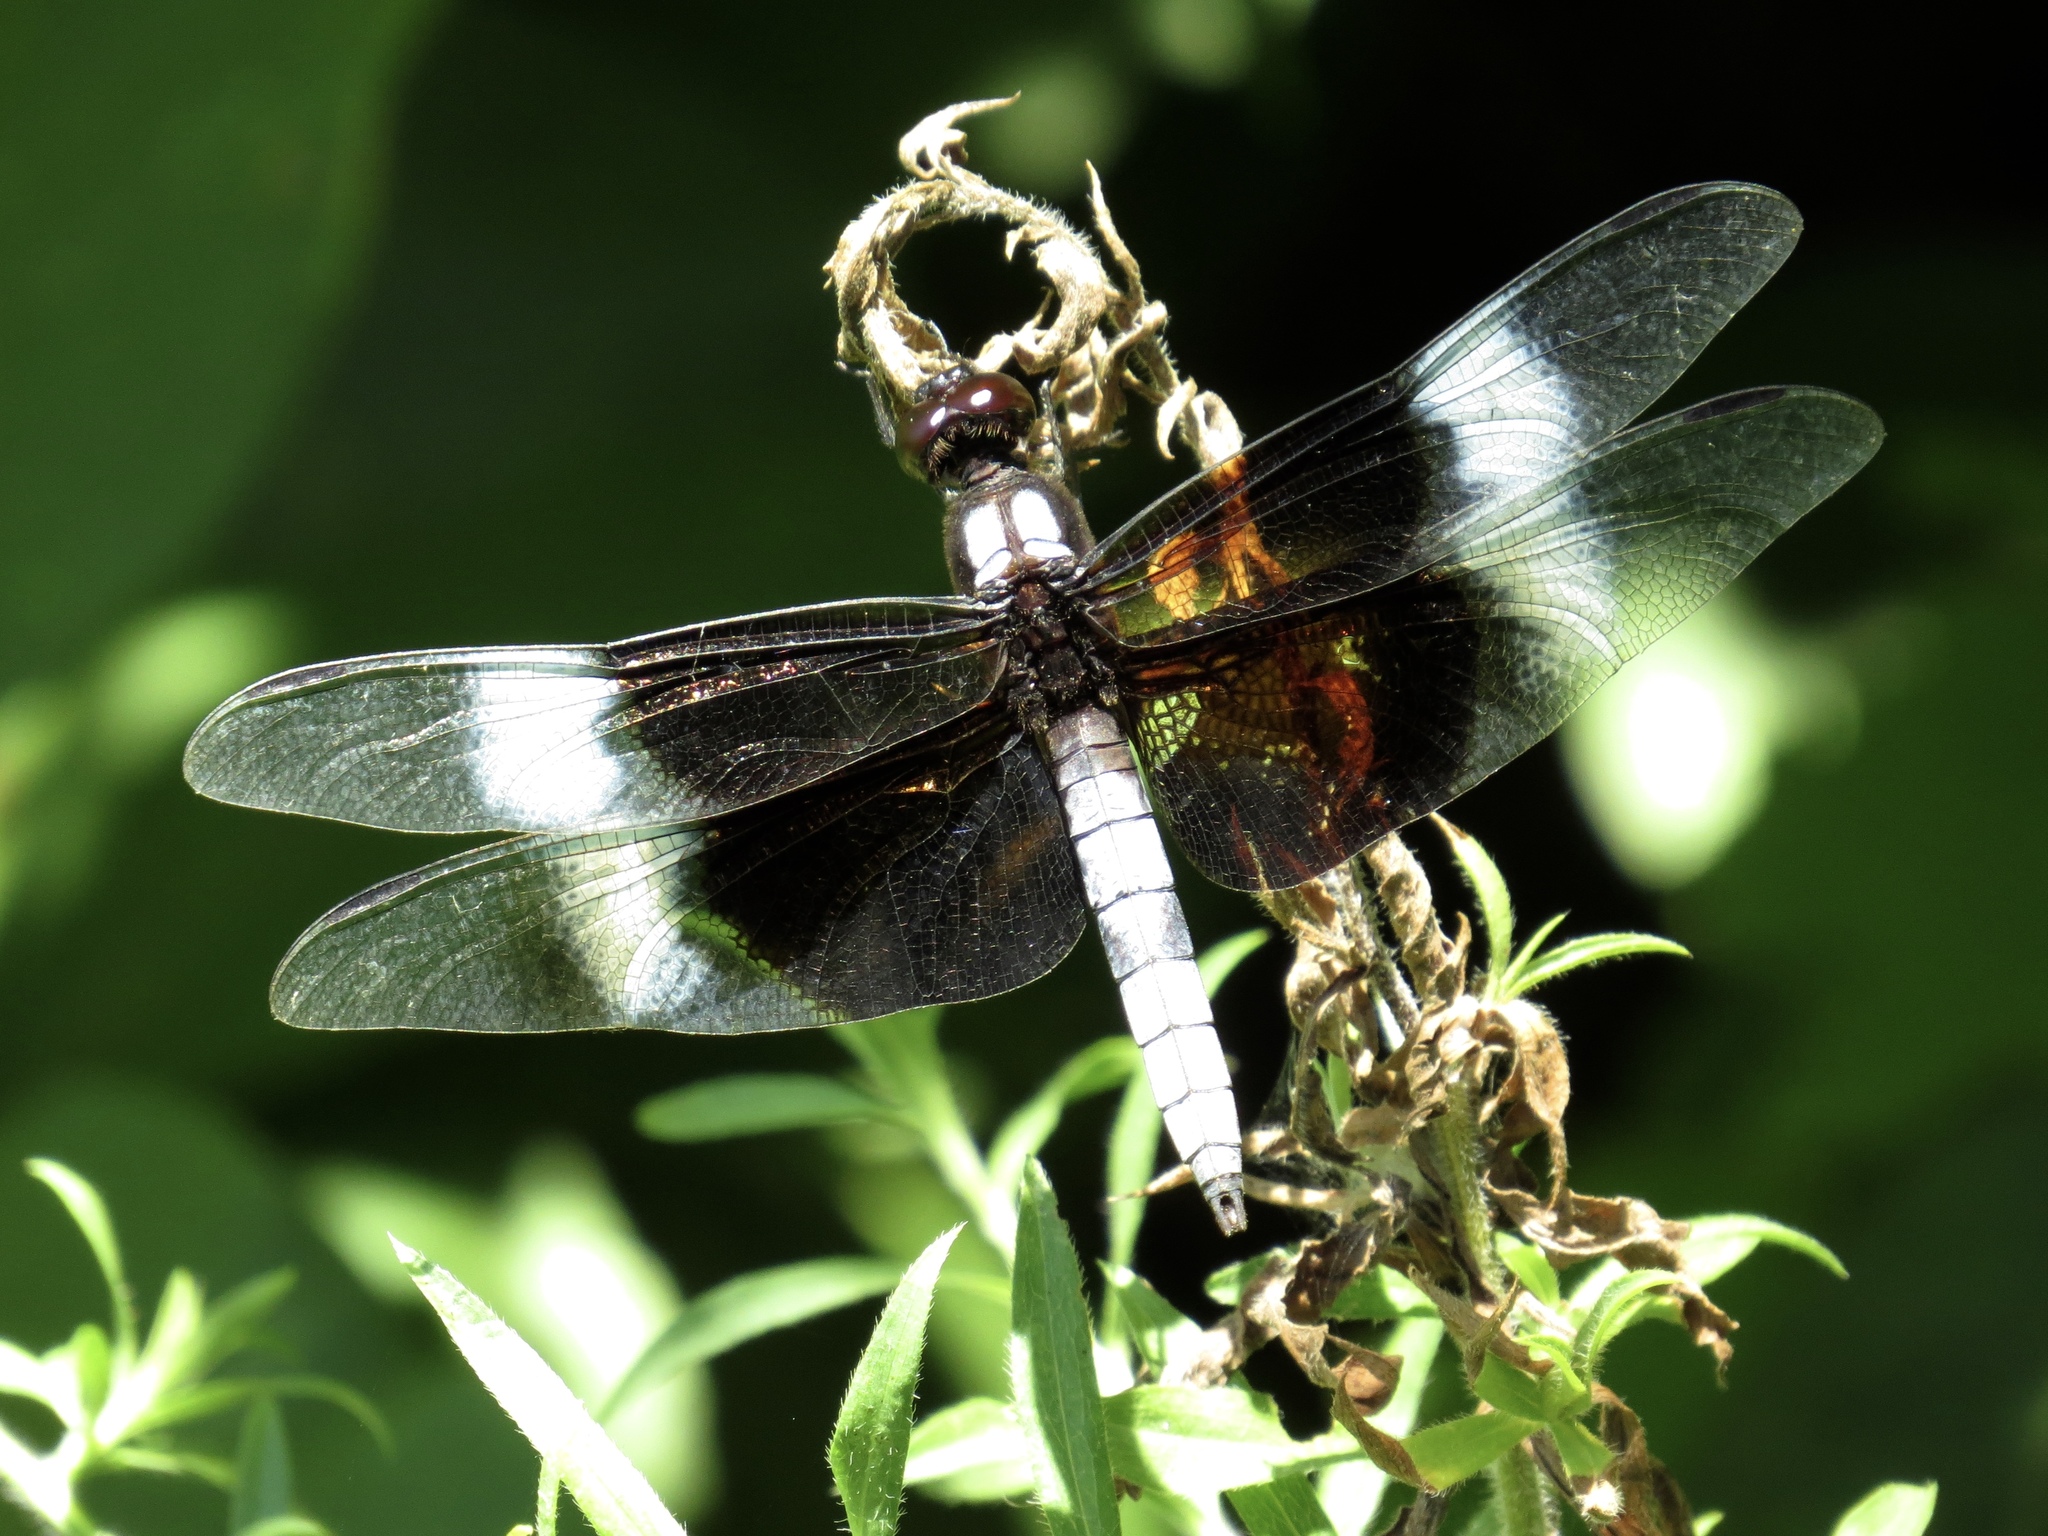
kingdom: Animalia
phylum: Arthropoda
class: Insecta
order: Odonata
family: Libellulidae
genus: Libellula
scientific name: Libellula luctuosa
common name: Widow skimmer
